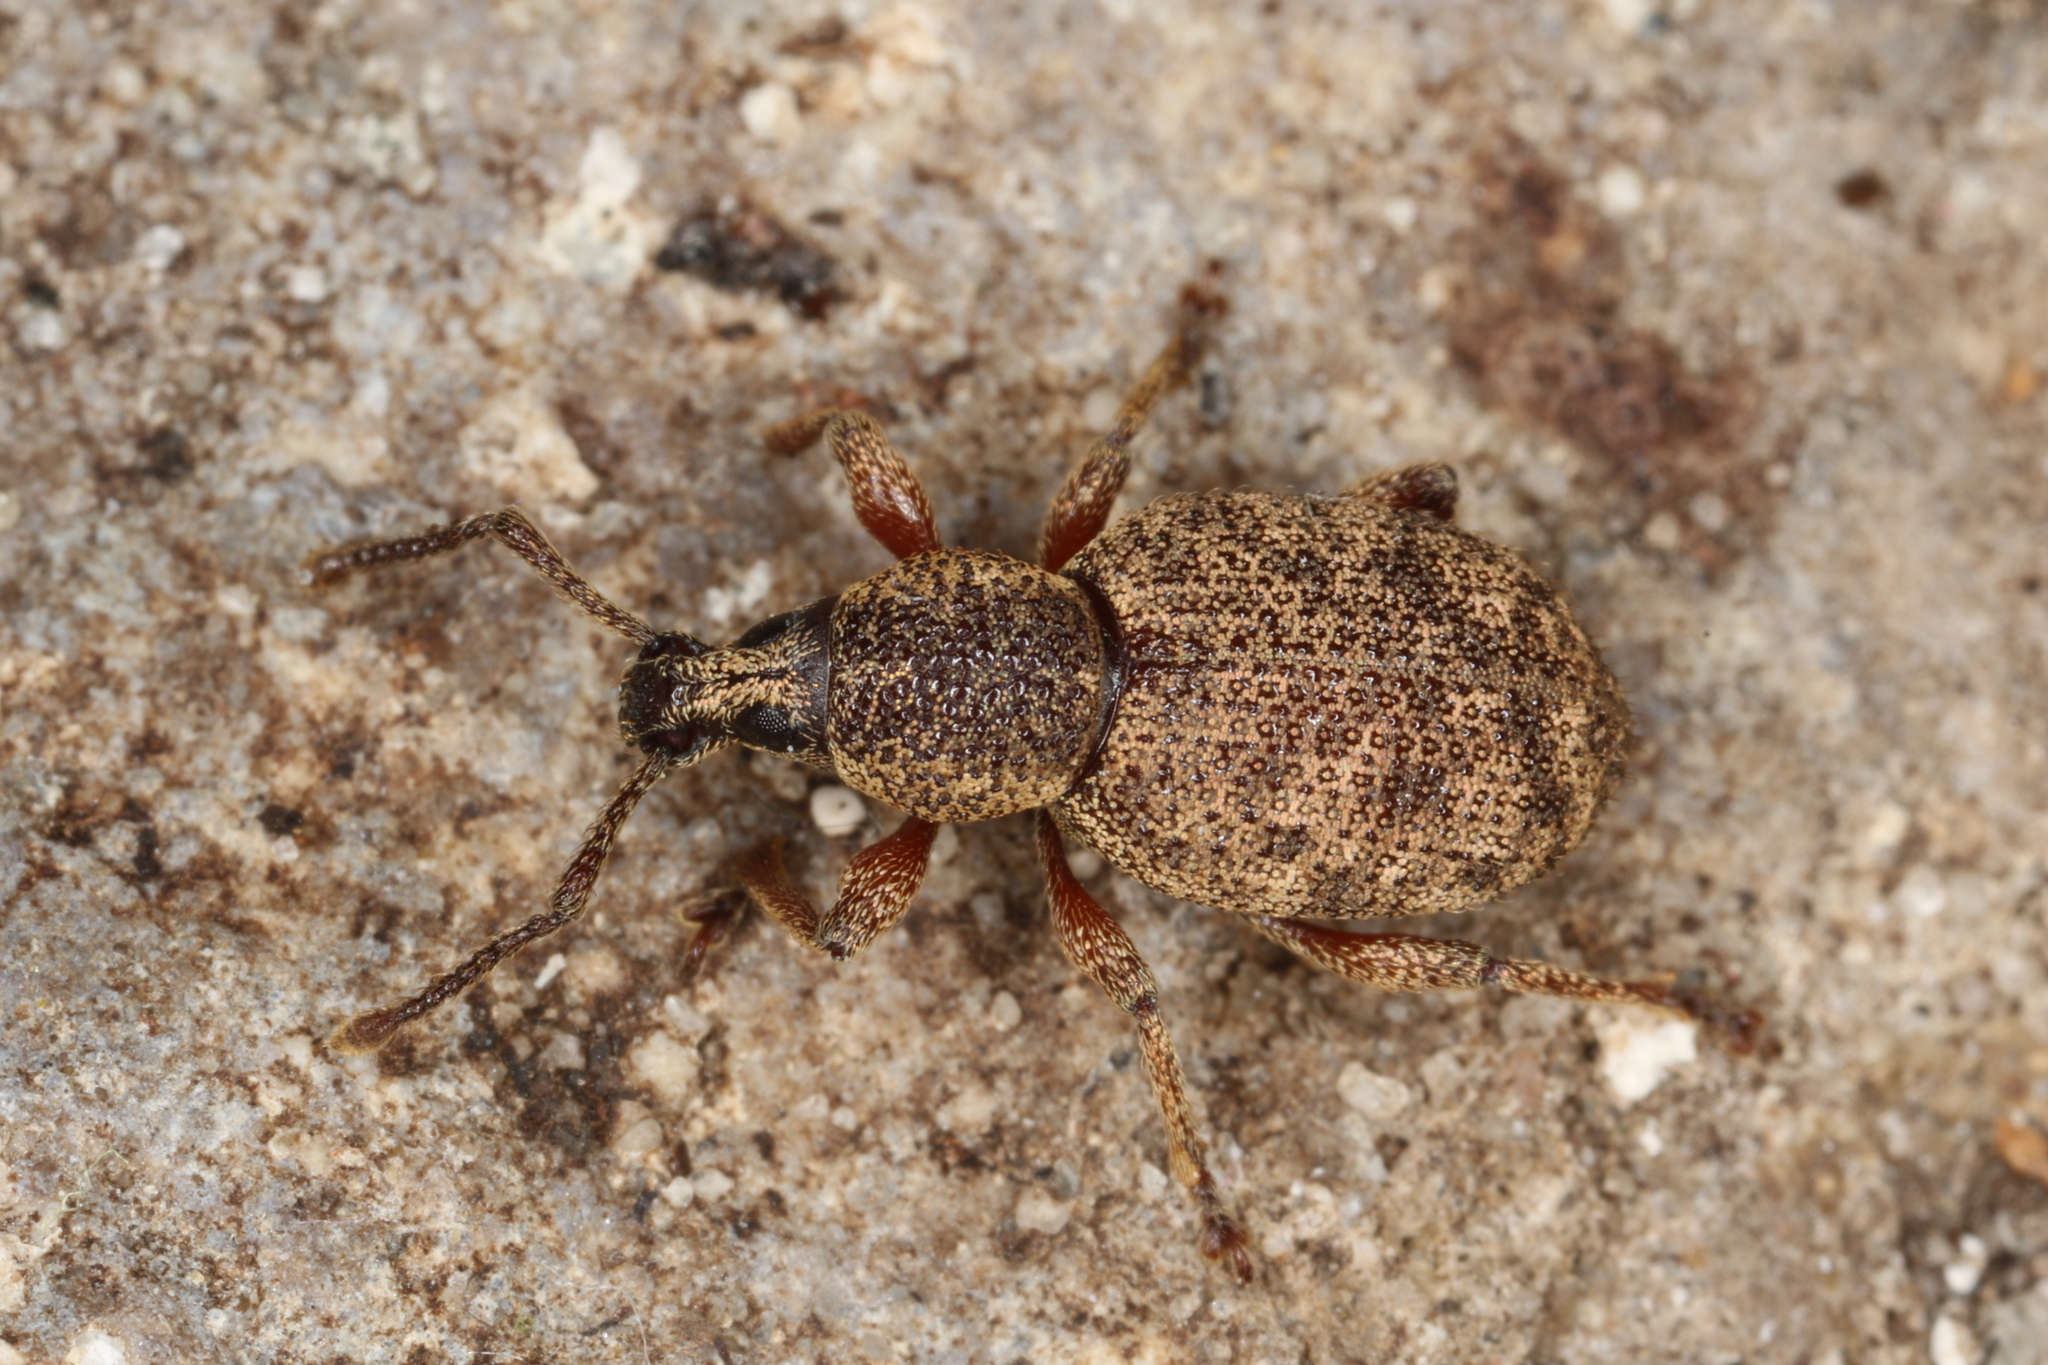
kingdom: Animalia
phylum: Arthropoda
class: Insecta
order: Coleoptera
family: Curculionidae
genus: Otiorhynchus
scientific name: Otiorhynchus singularis
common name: Clay-coloured weevil
